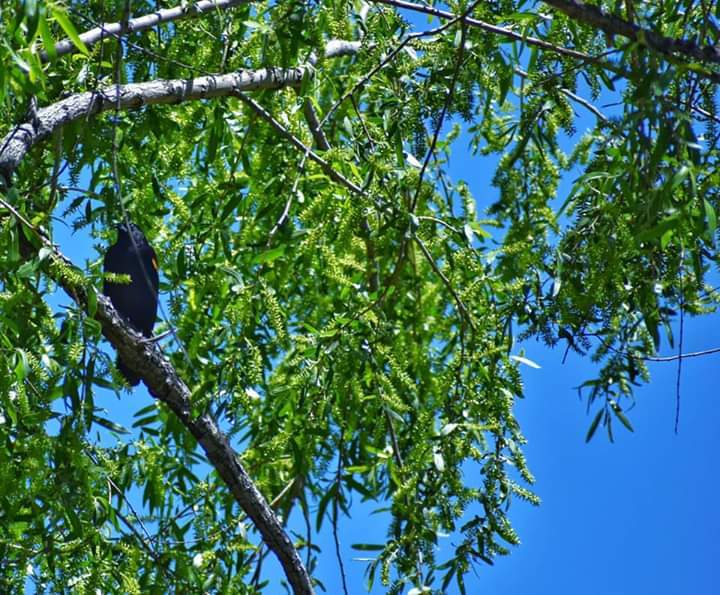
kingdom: Animalia
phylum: Chordata
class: Aves
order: Passeriformes
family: Icteridae
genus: Agelaius
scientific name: Agelaius phoeniceus
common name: Red-winged blackbird
